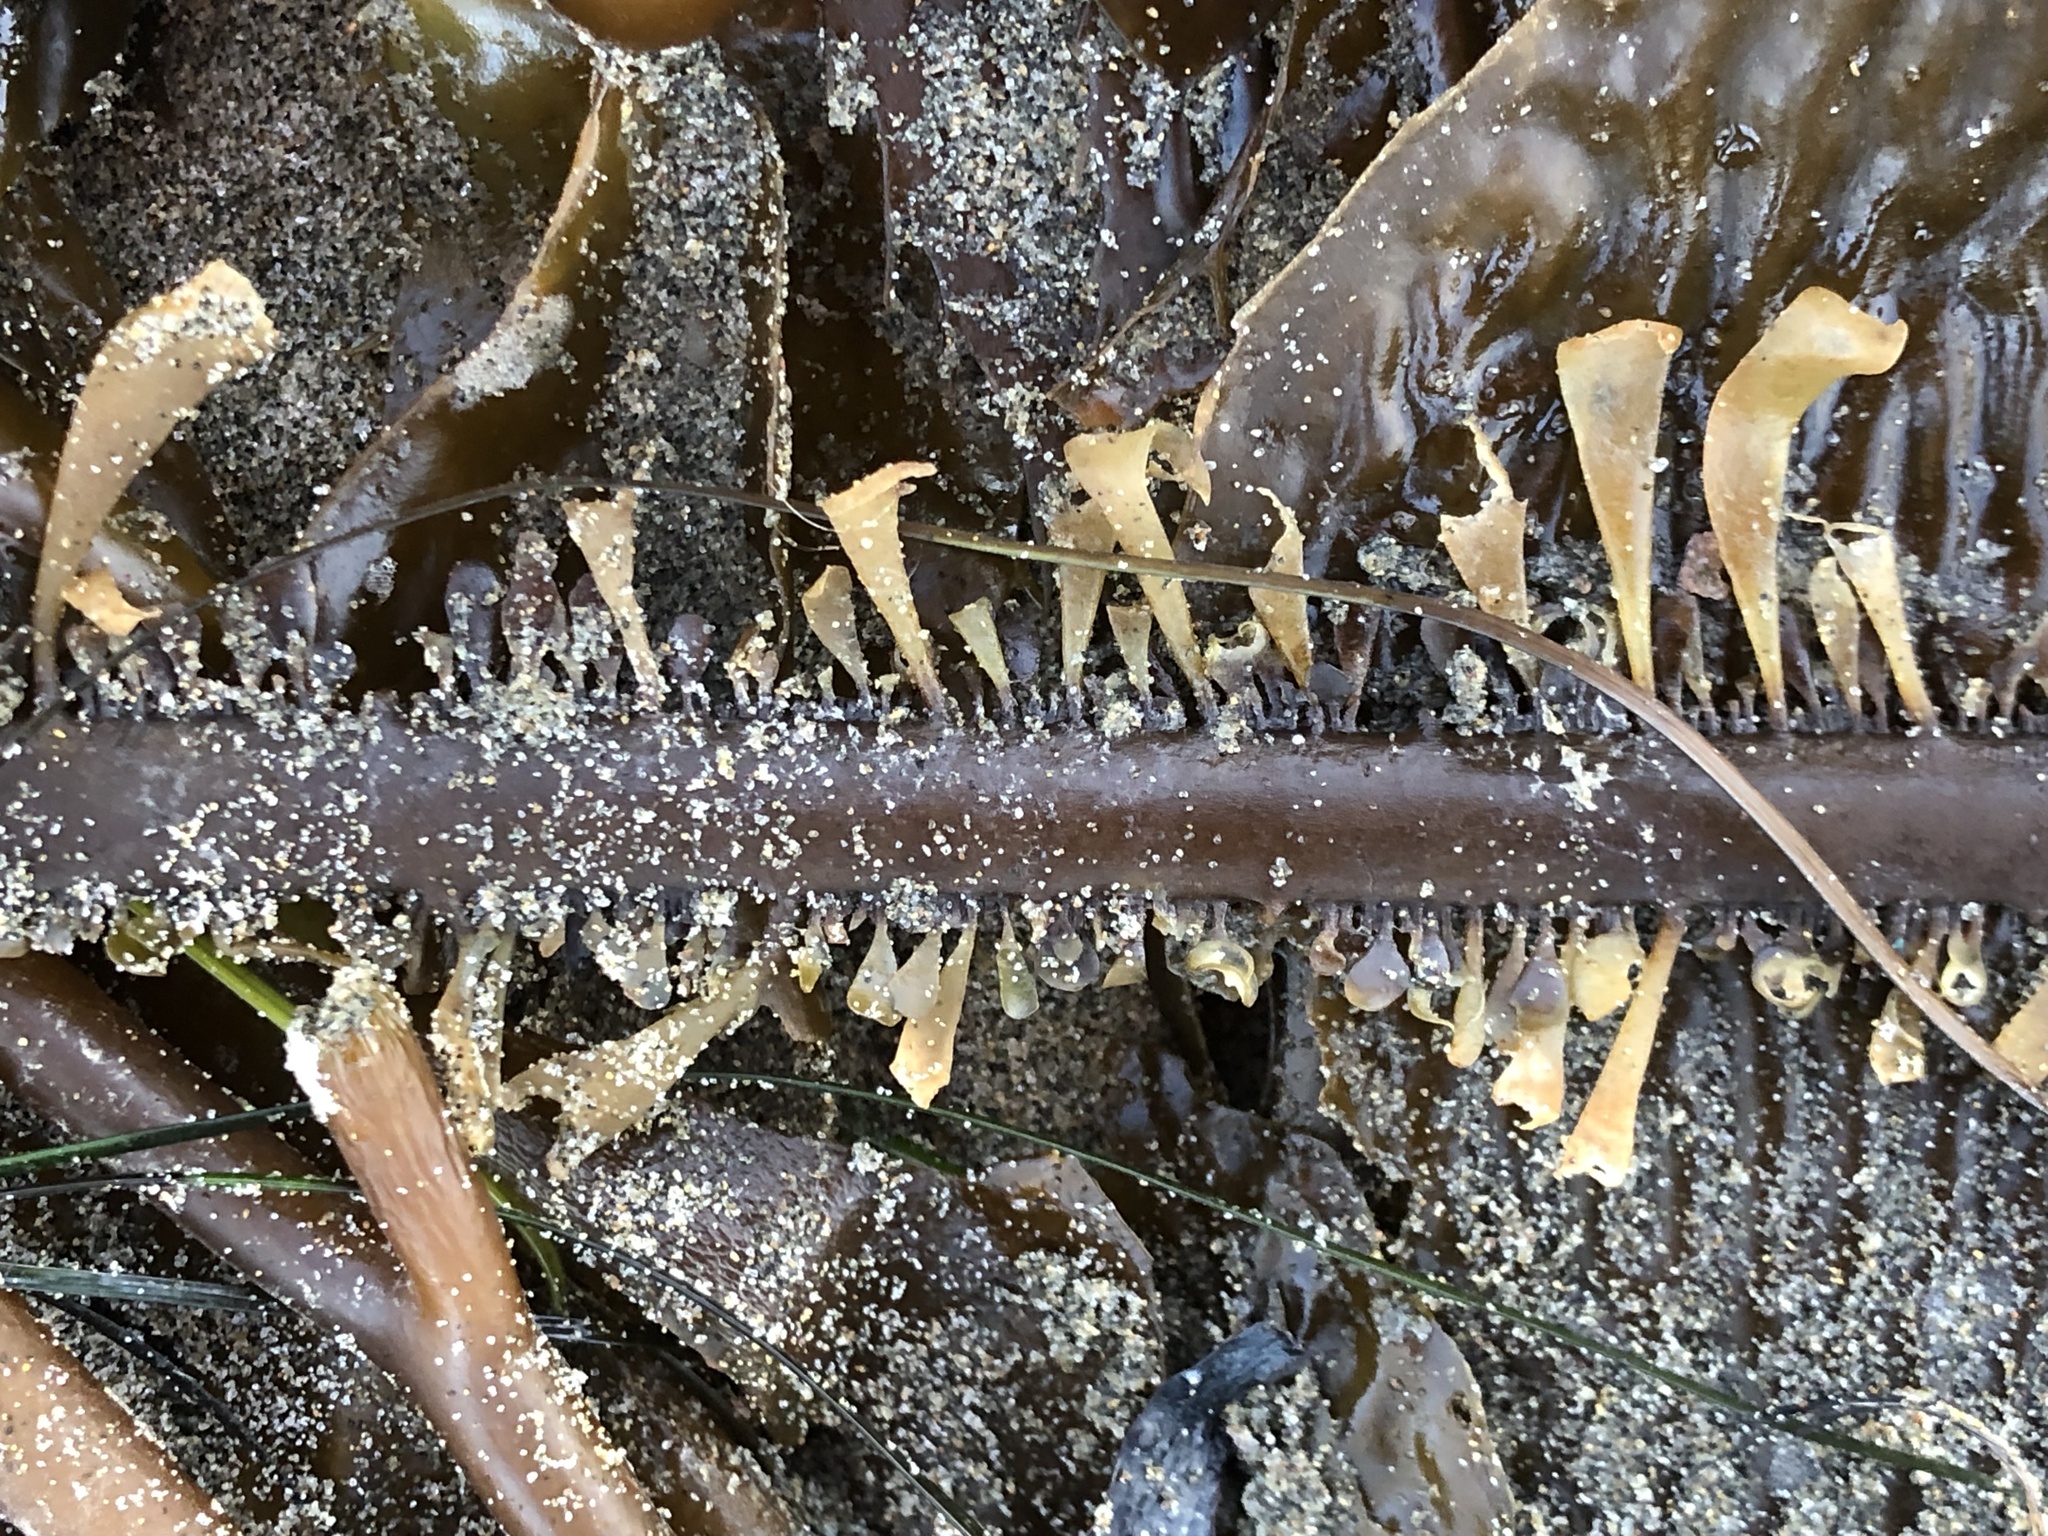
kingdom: Chromista
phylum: Ochrophyta
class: Phaeophyceae
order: Laminariales
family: Lessoniaceae
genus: Egregia
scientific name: Egregia menziesii
